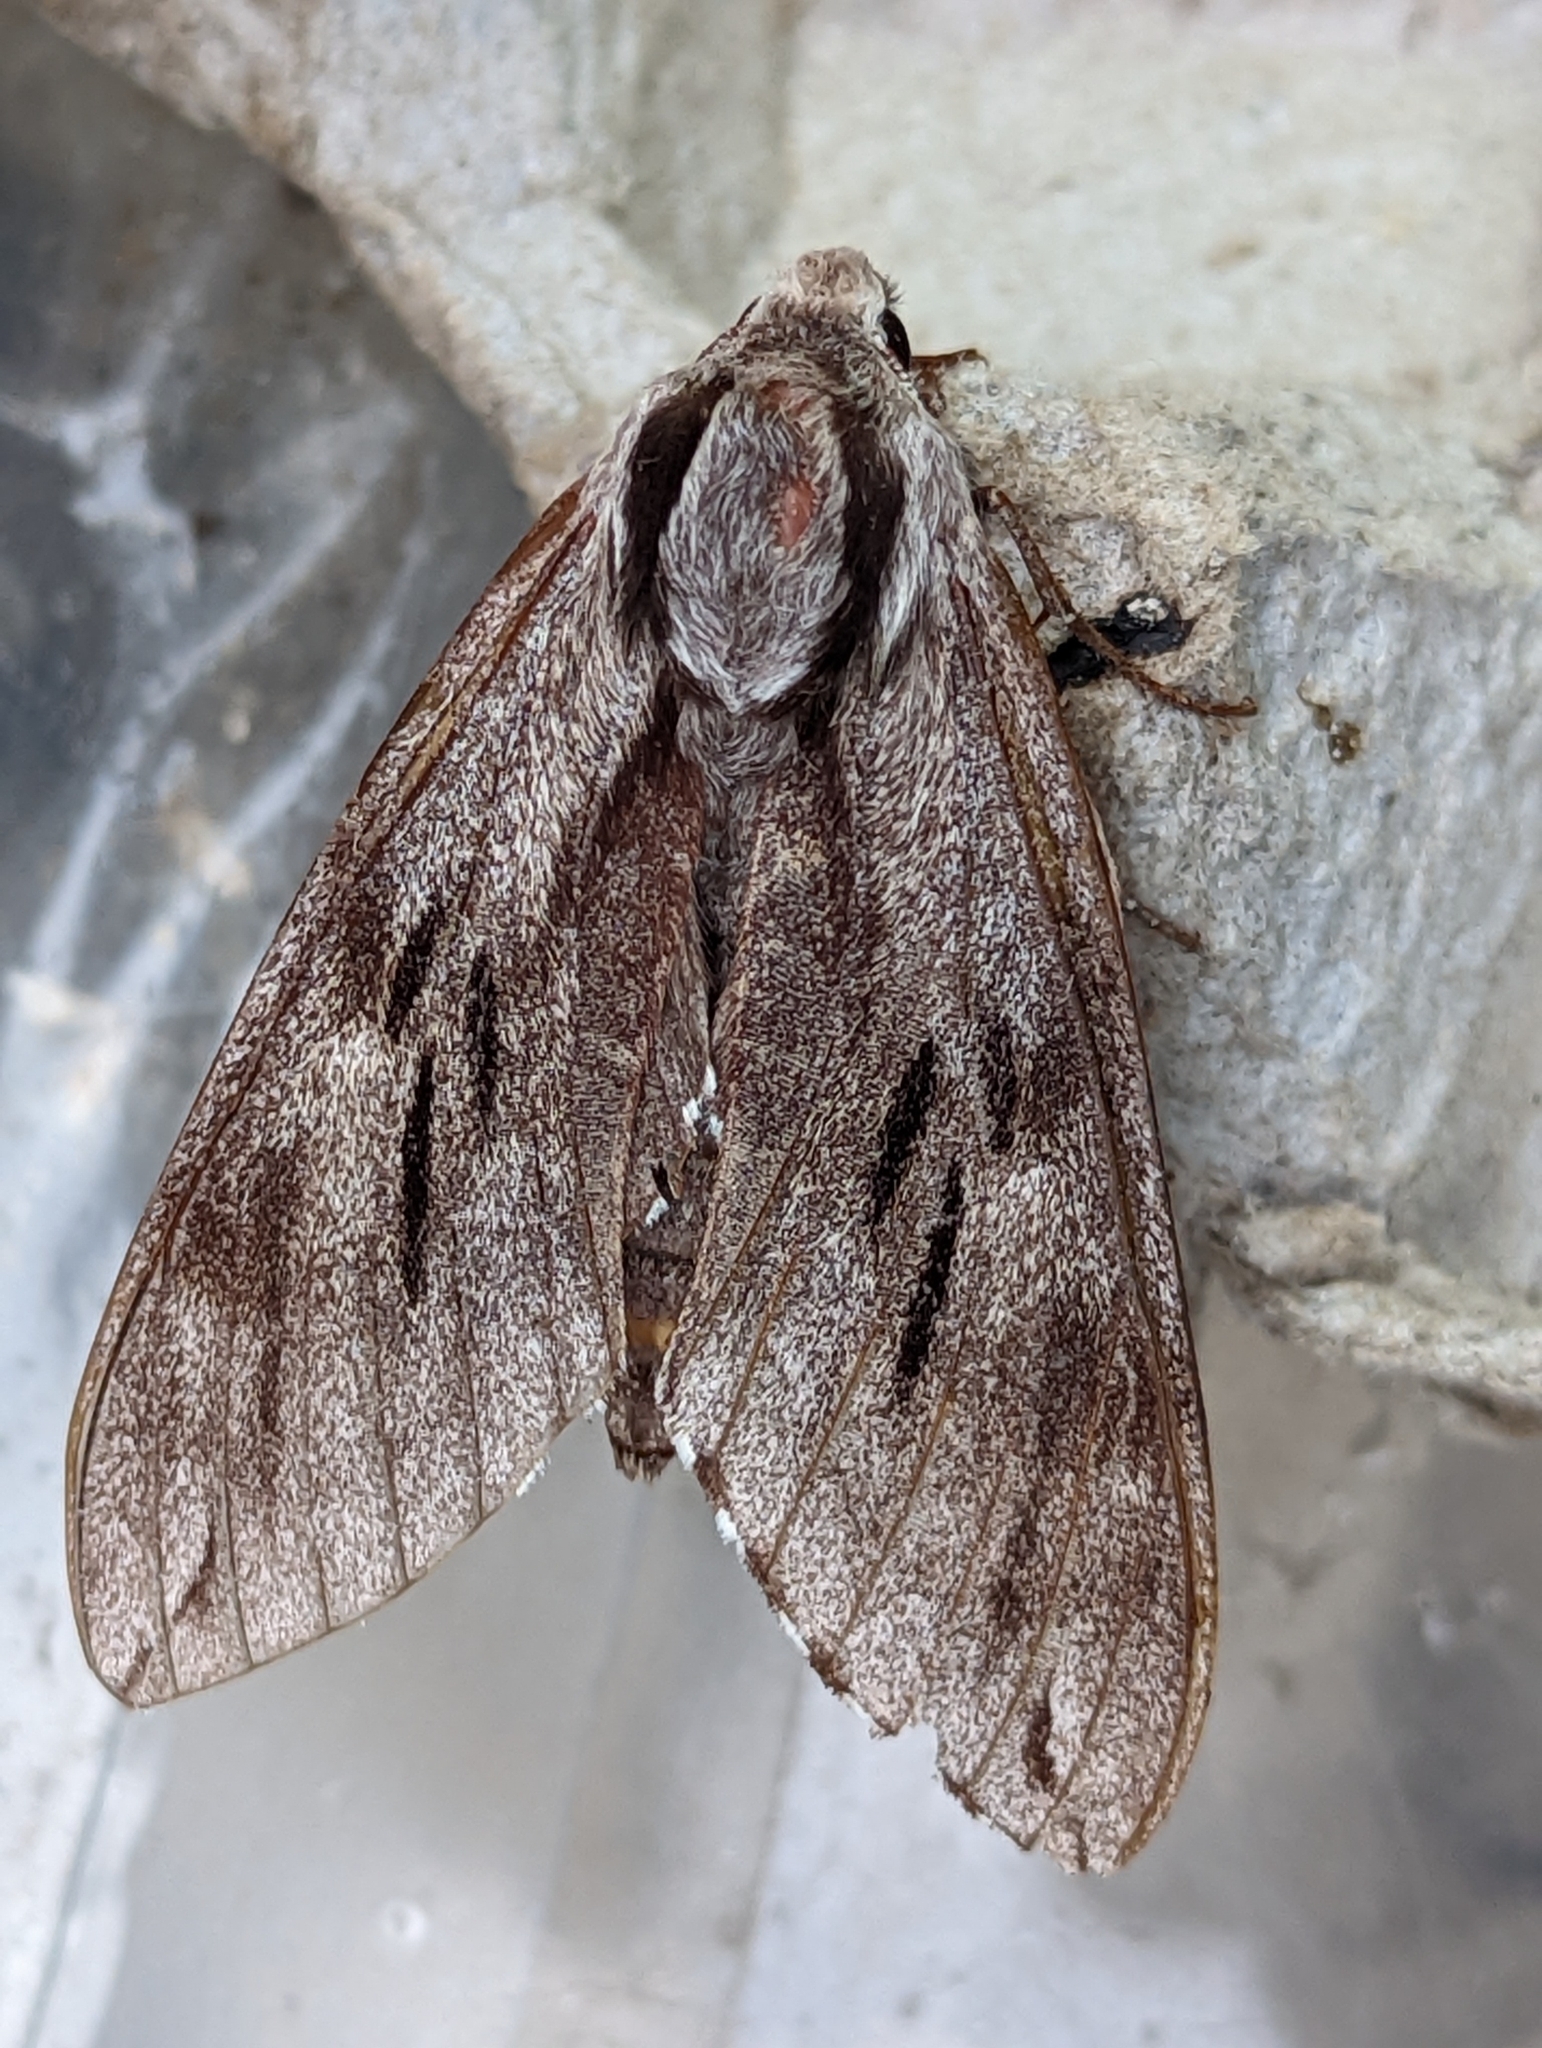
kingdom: Animalia
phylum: Arthropoda
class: Insecta
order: Lepidoptera
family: Sphingidae
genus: Sphinx
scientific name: Sphinx pinastri
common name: Pine hawk-moth
